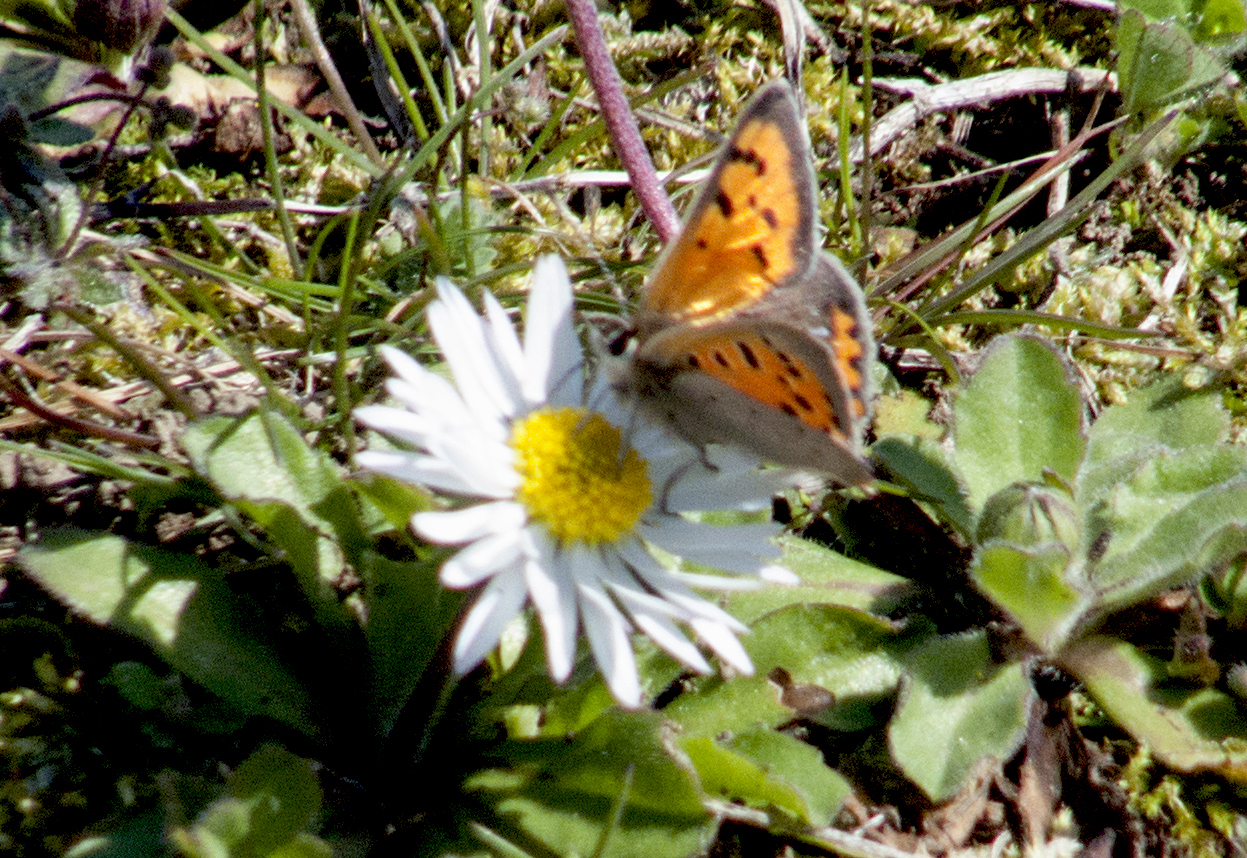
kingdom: Animalia
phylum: Arthropoda
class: Insecta
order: Lepidoptera
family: Lycaenidae
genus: Lycaena
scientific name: Lycaena phlaeas
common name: Small copper
